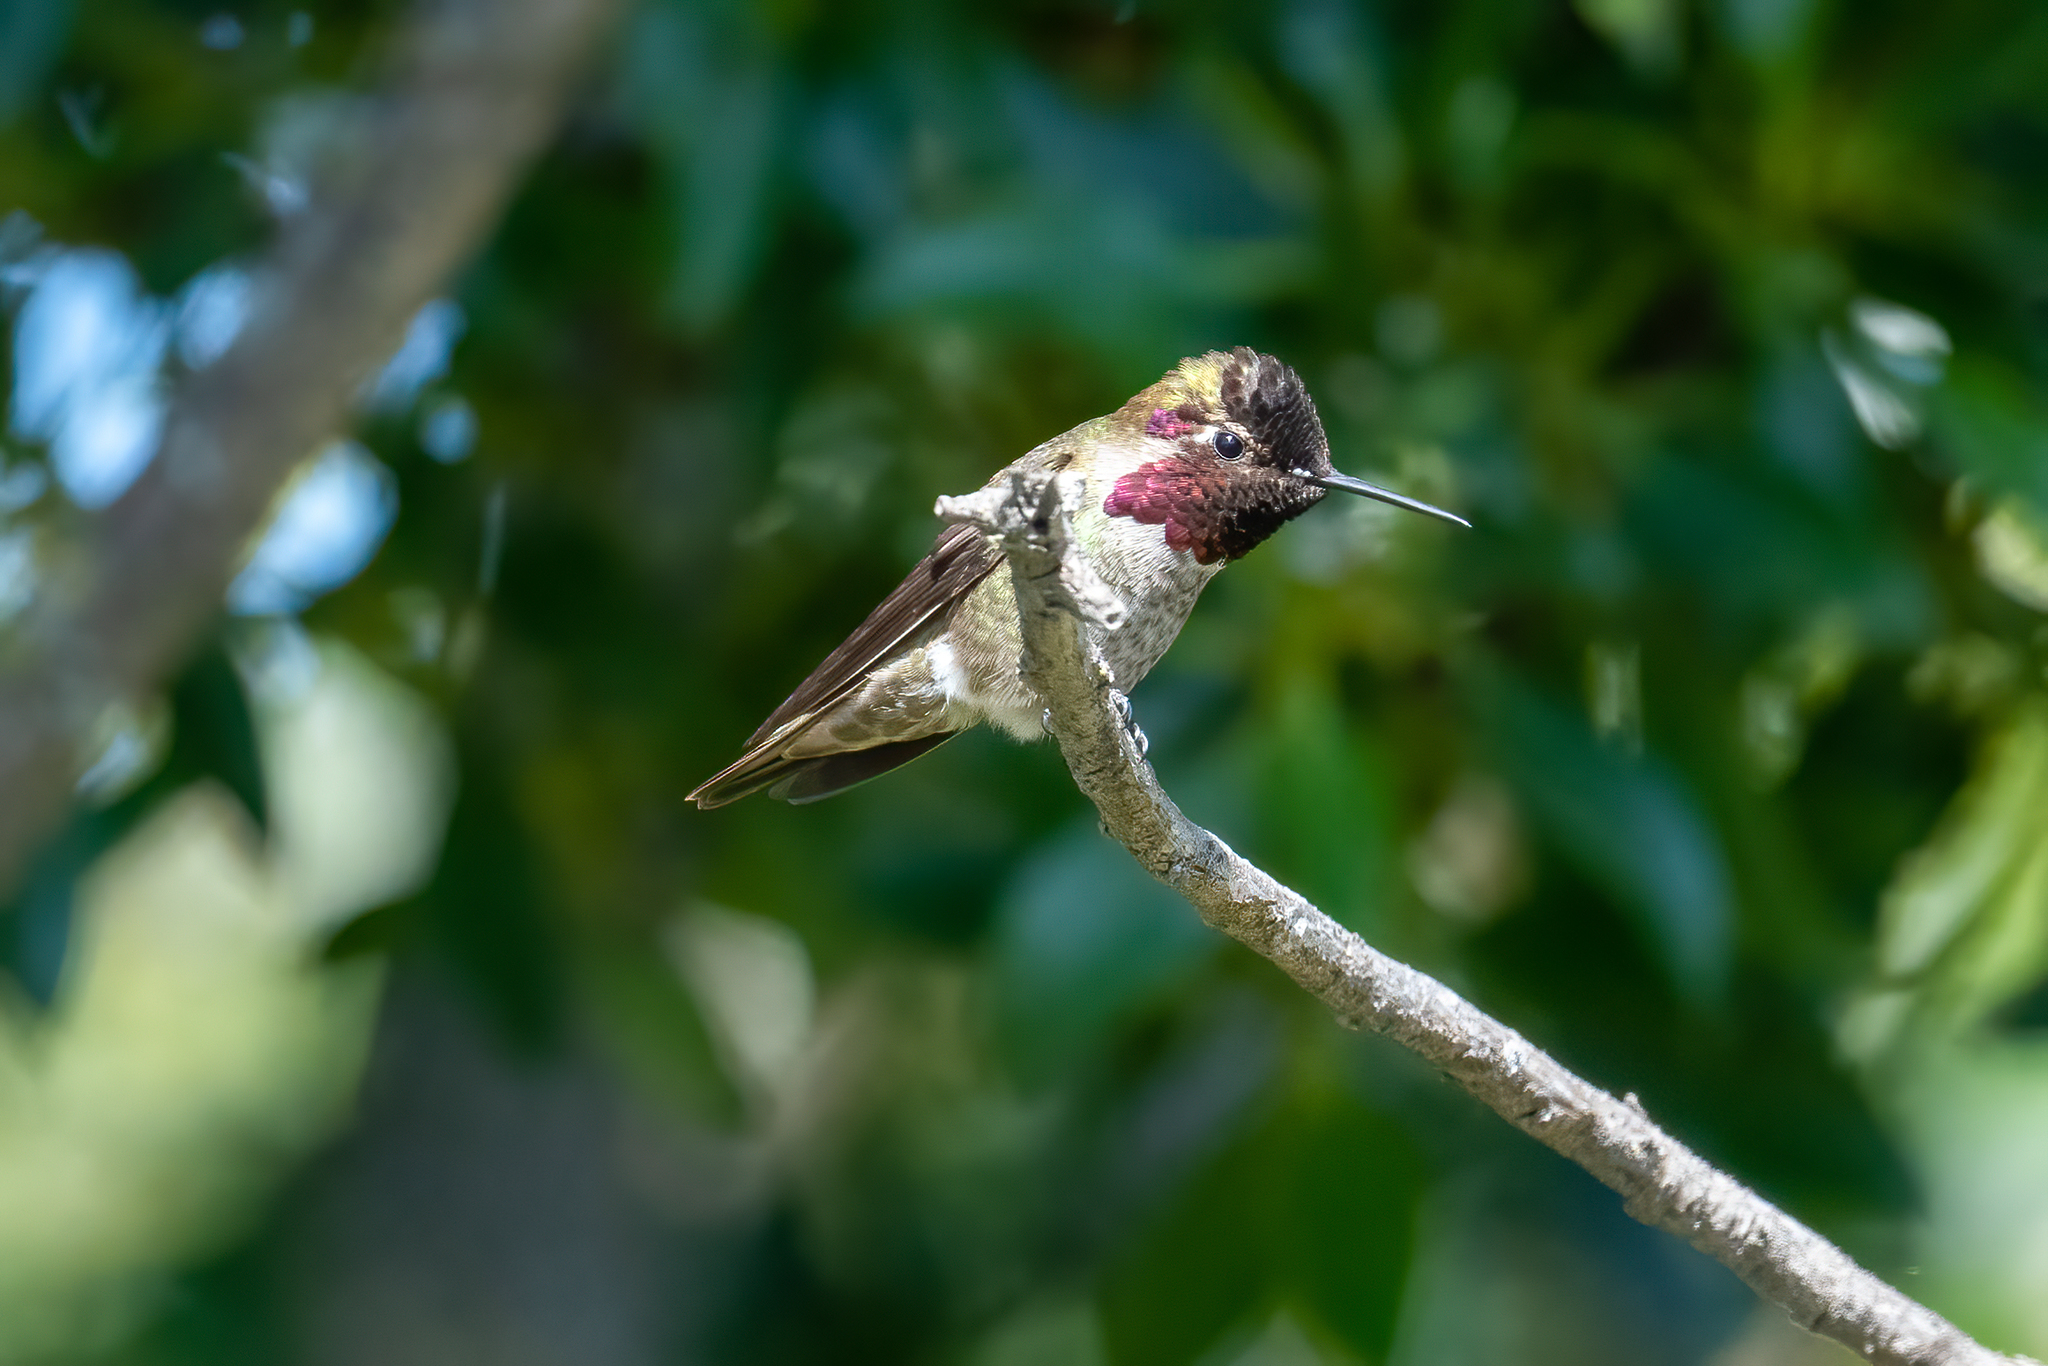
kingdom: Animalia
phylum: Chordata
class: Aves
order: Apodiformes
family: Trochilidae
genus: Calypte
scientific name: Calypte anna
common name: Anna's hummingbird
